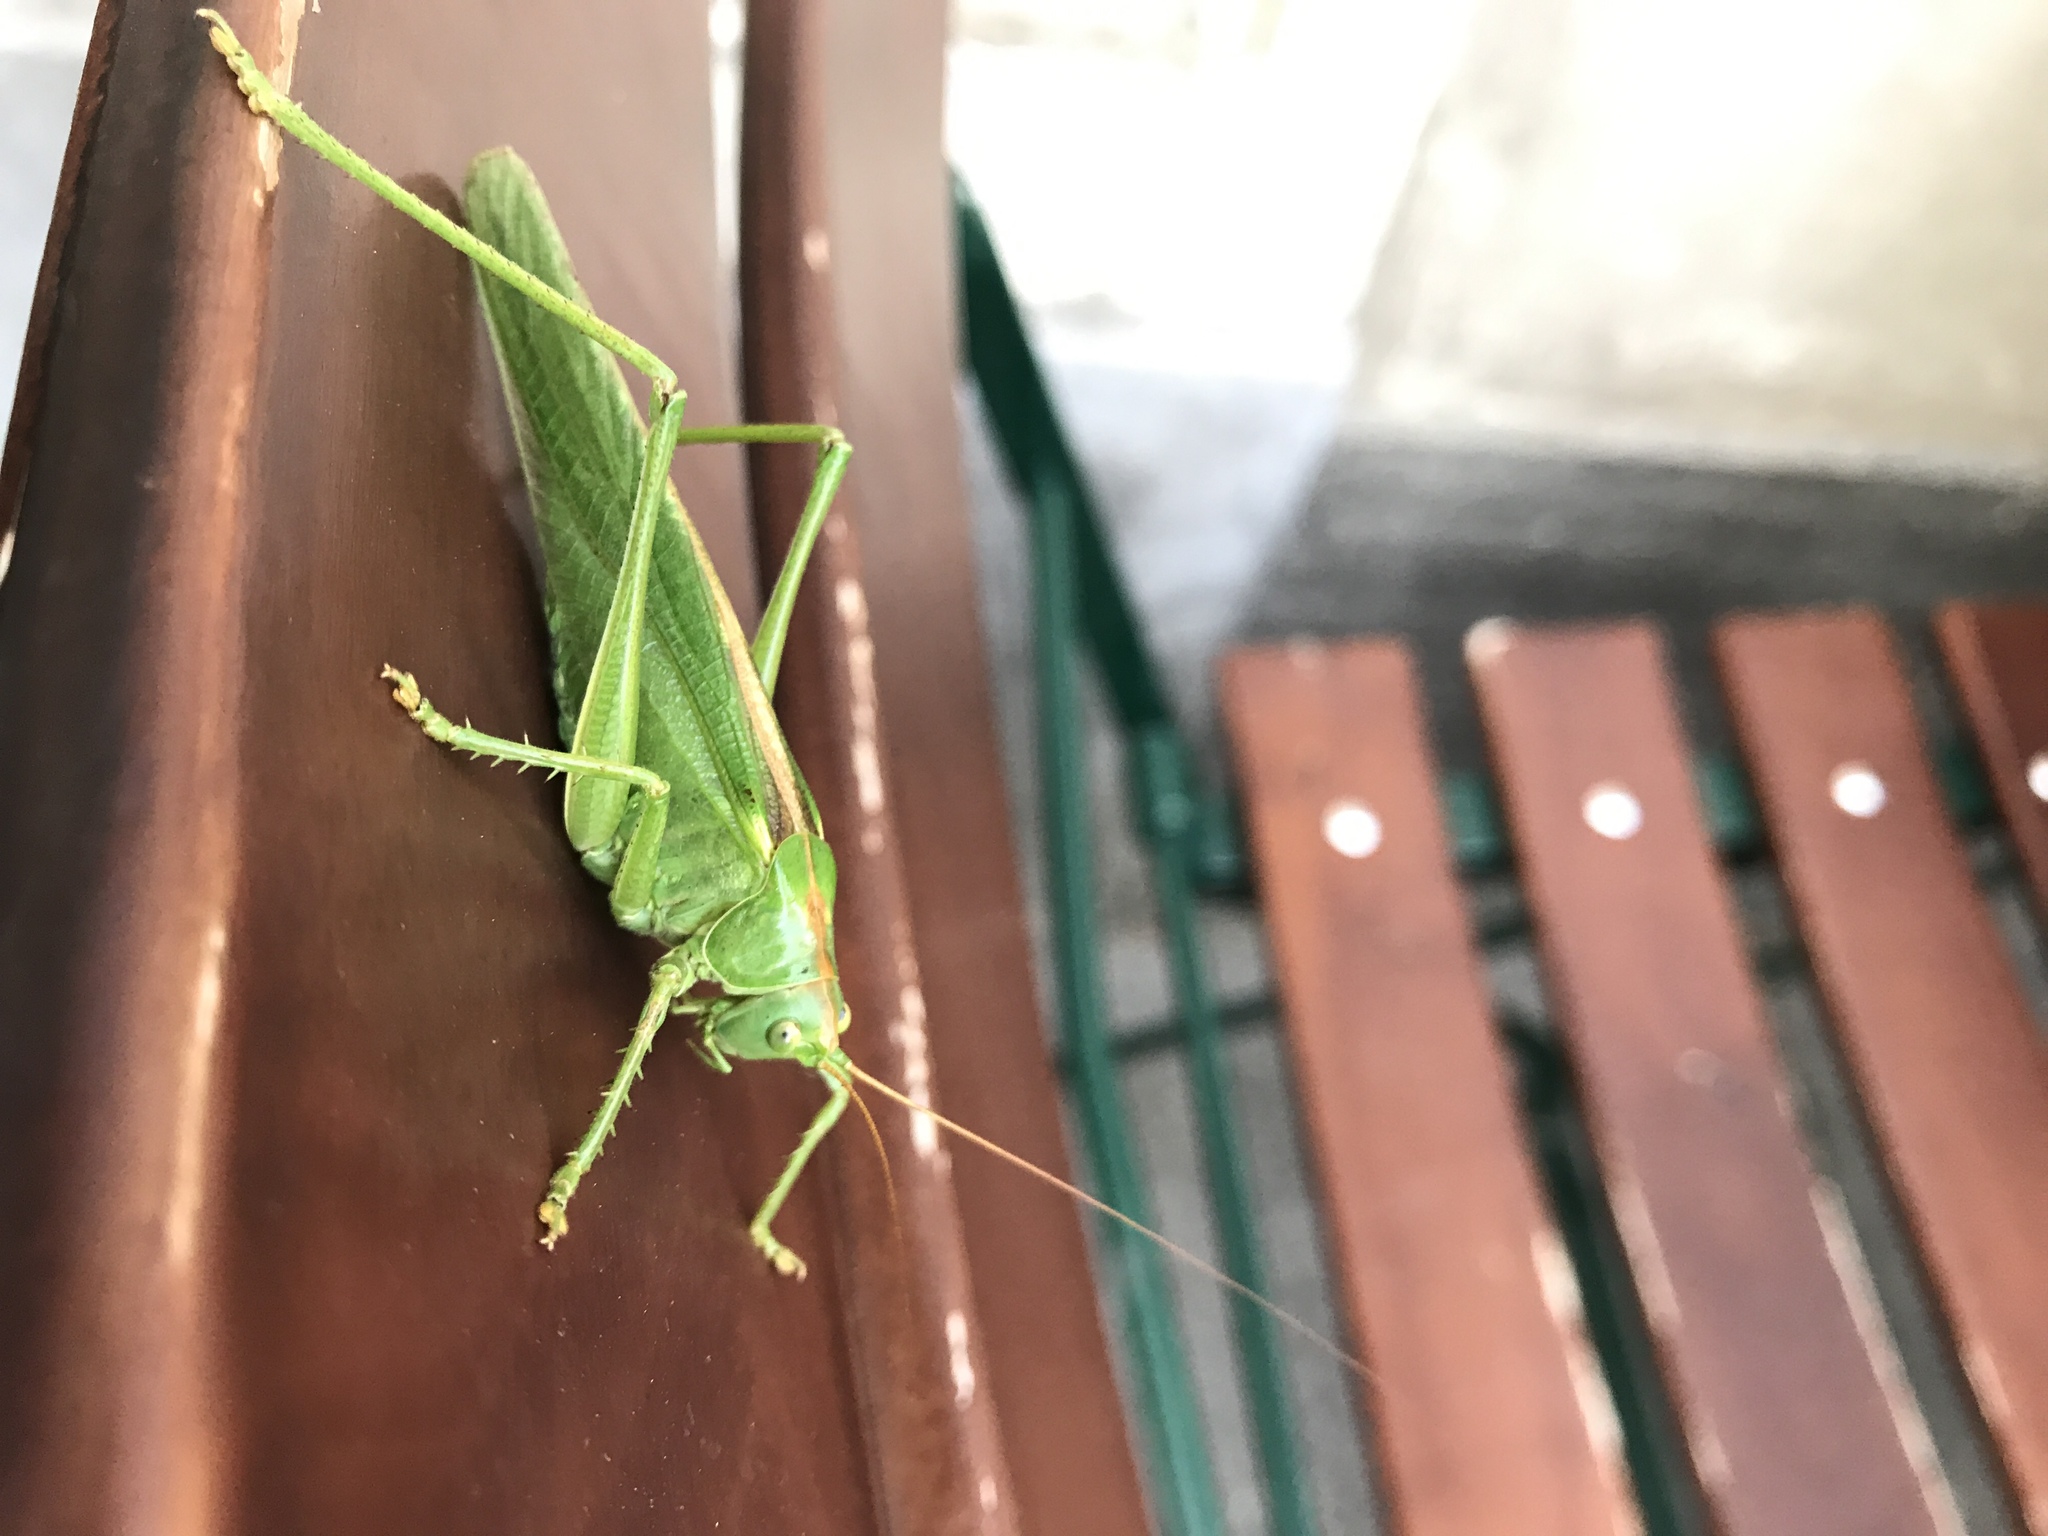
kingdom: Animalia
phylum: Arthropoda
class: Insecta
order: Orthoptera
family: Tettigoniidae
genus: Tettigonia
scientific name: Tettigonia viridissima
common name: Great green bush-cricket
